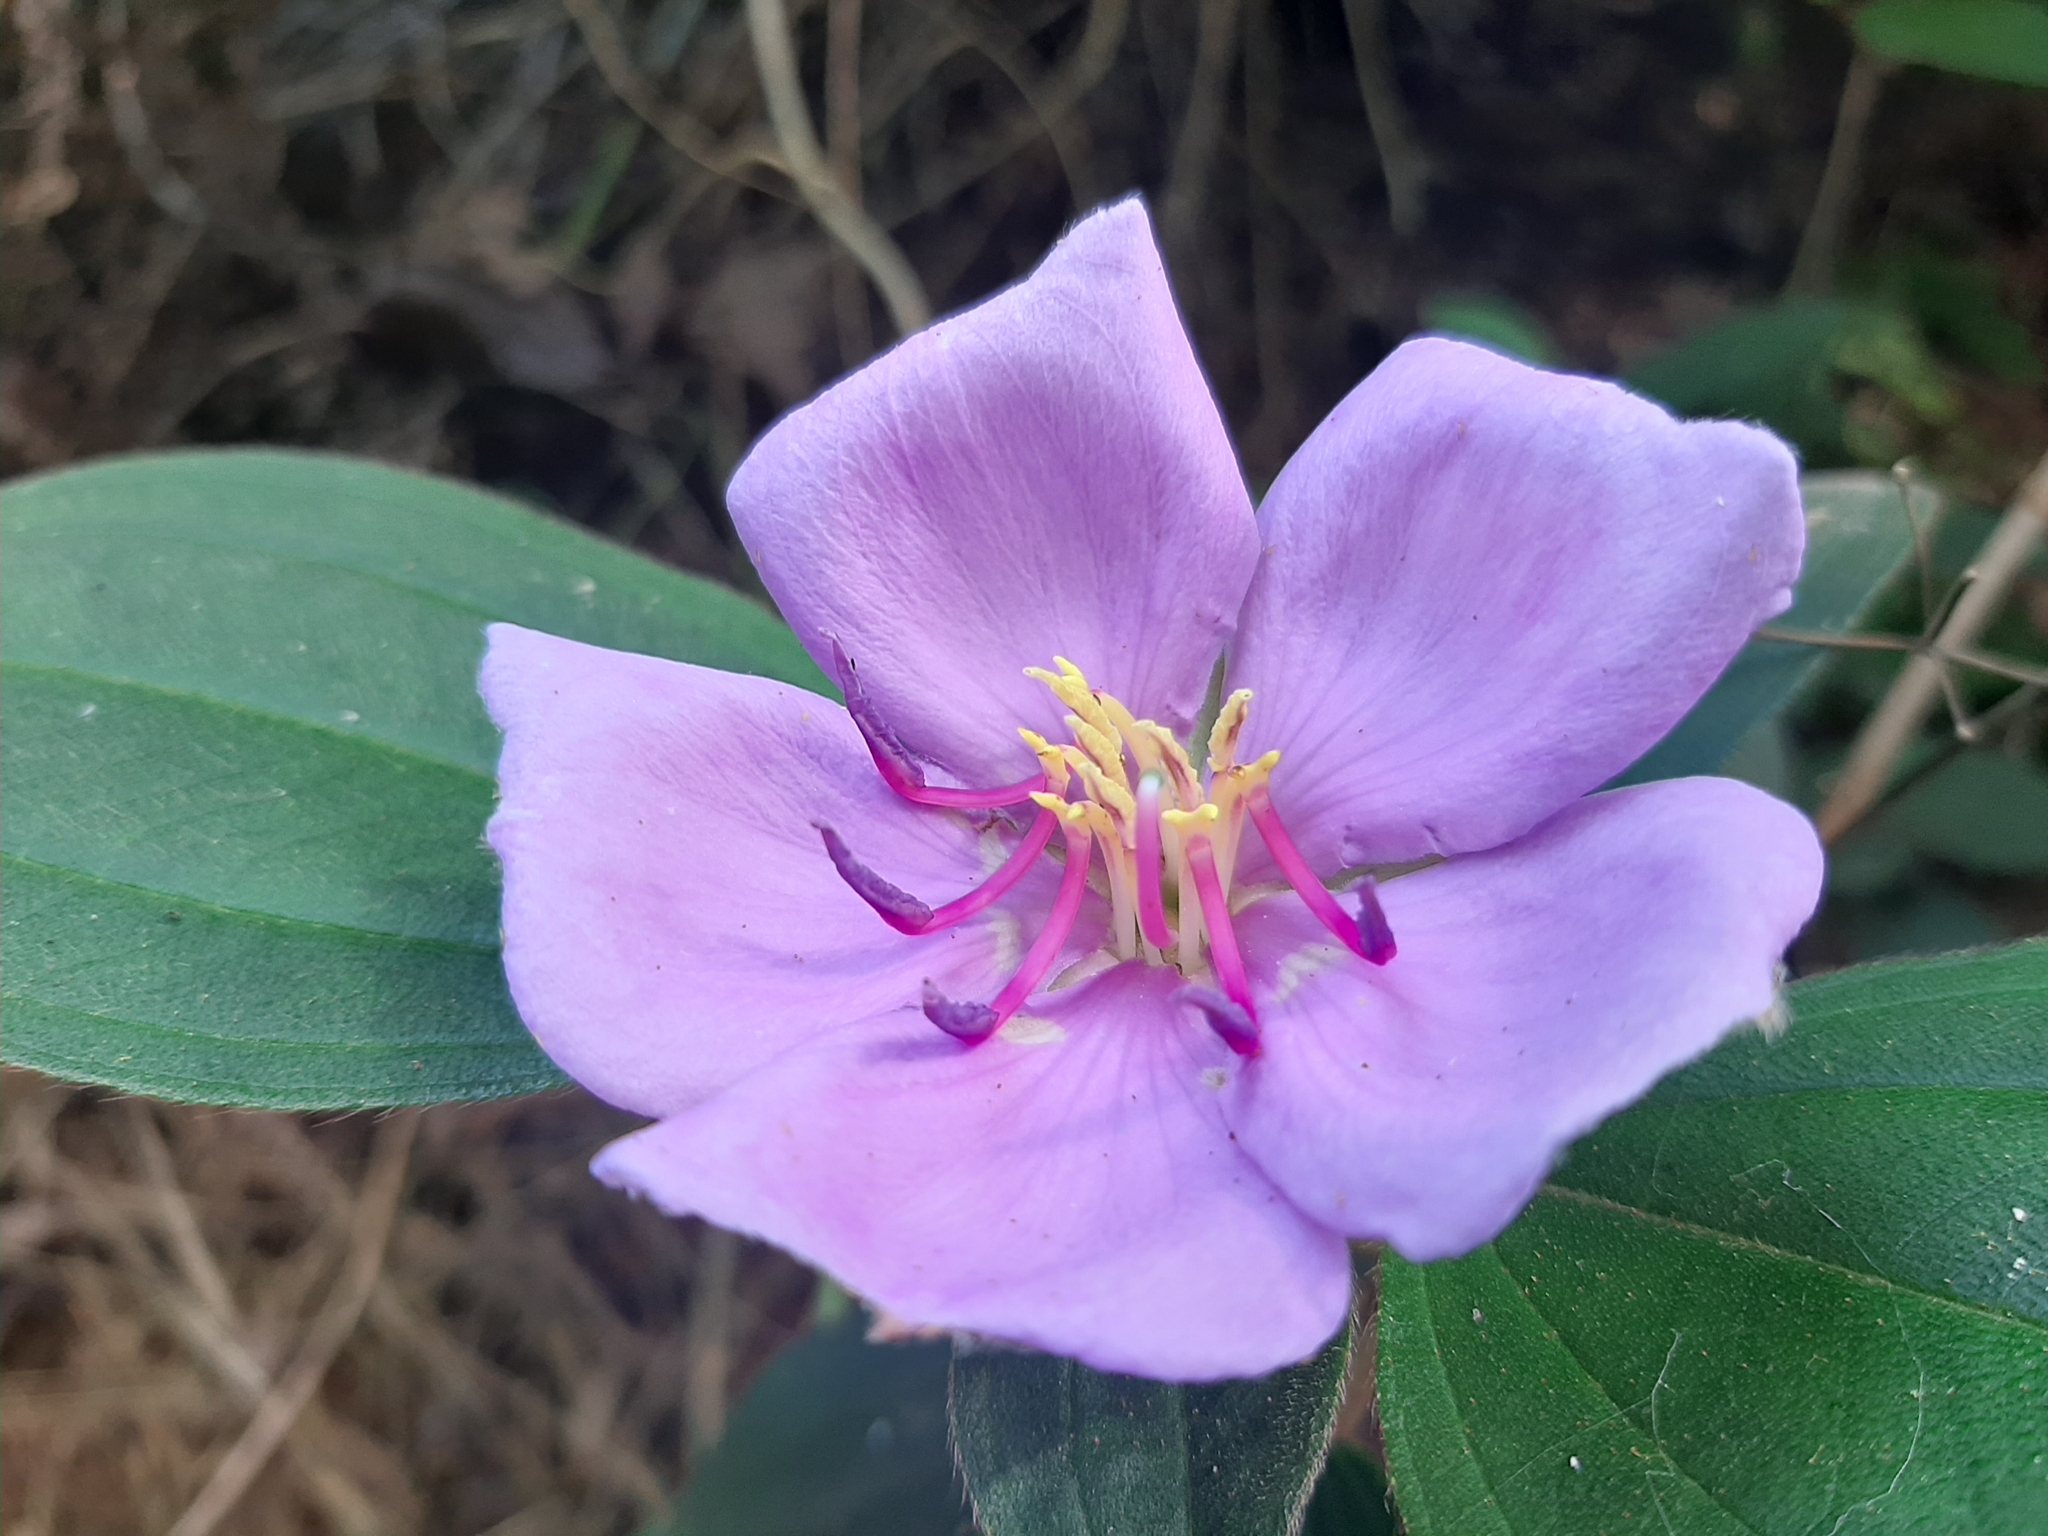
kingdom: Plantae
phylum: Tracheophyta
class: Magnoliopsida
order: Myrtales
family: Melastomataceae
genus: Melastoma
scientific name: Melastoma malabathricum
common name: Indian-rhododendron
